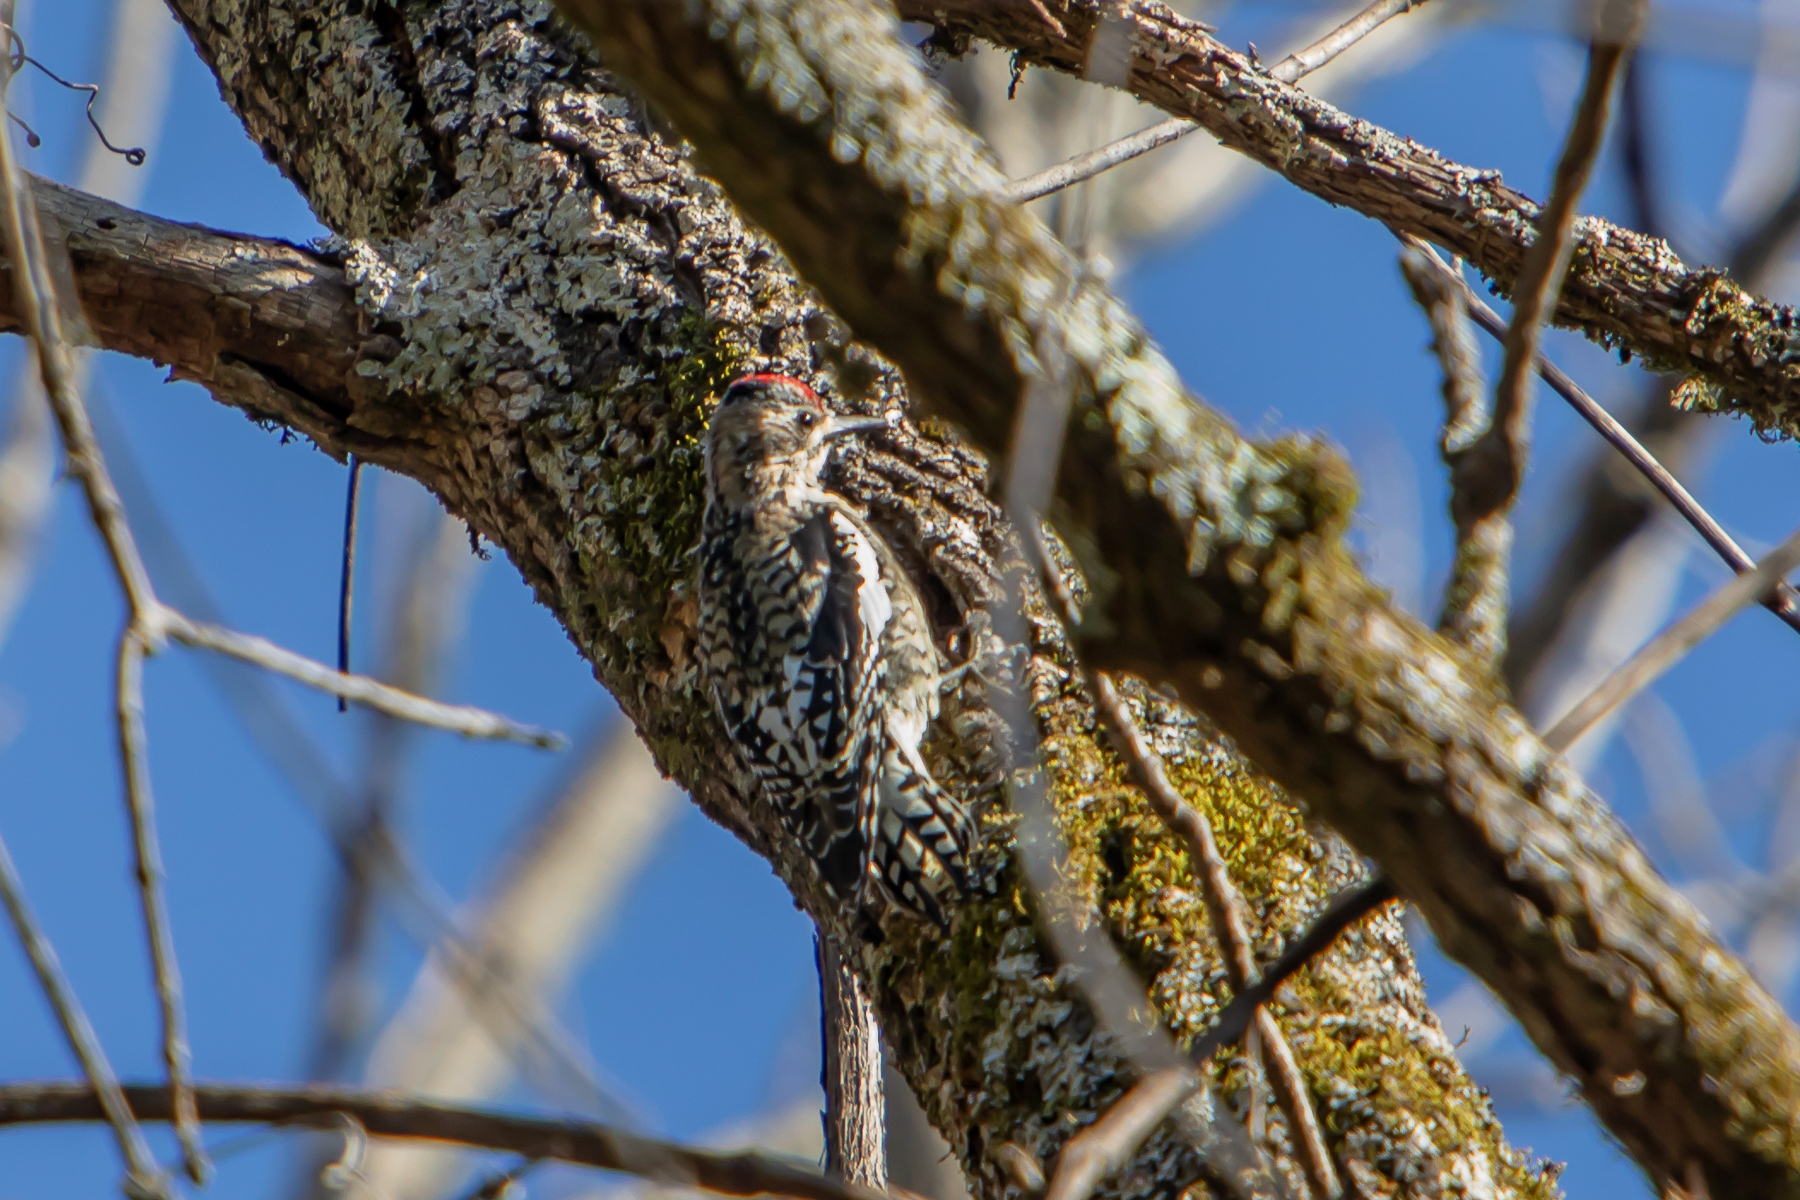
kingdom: Animalia
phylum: Chordata
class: Aves
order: Piciformes
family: Picidae
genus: Sphyrapicus
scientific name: Sphyrapicus varius
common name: Yellow-bellied sapsucker
